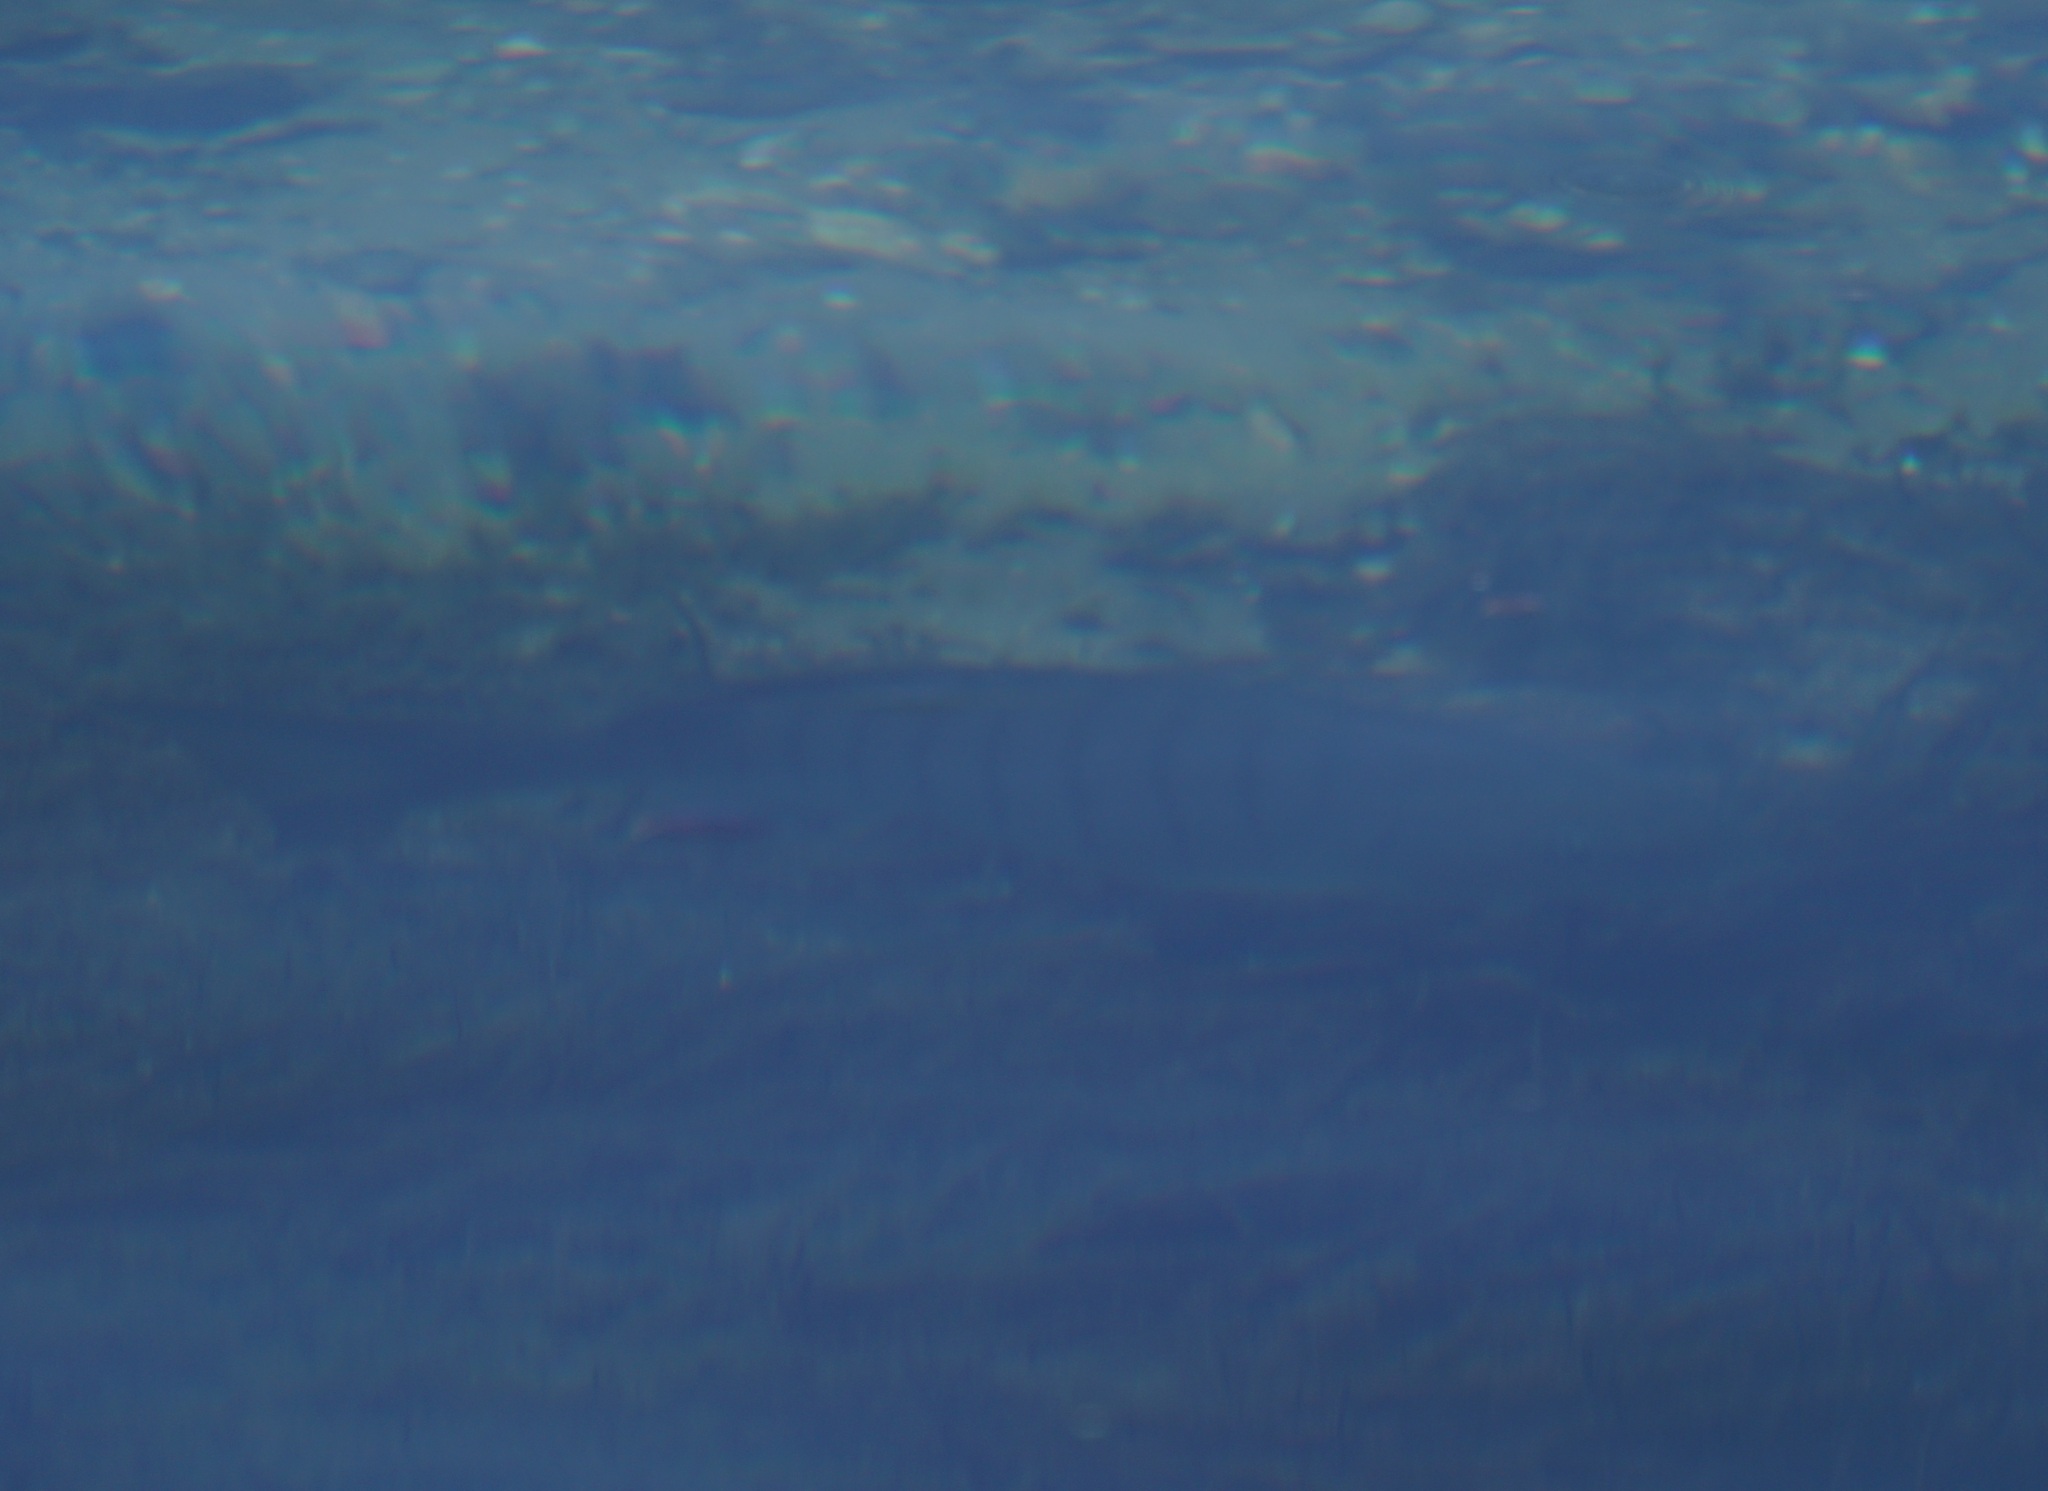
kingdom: Animalia
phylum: Chordata
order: Perciformes
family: Kyphosidae
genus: Girella
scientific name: Girella tricuspidata
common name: Parore
